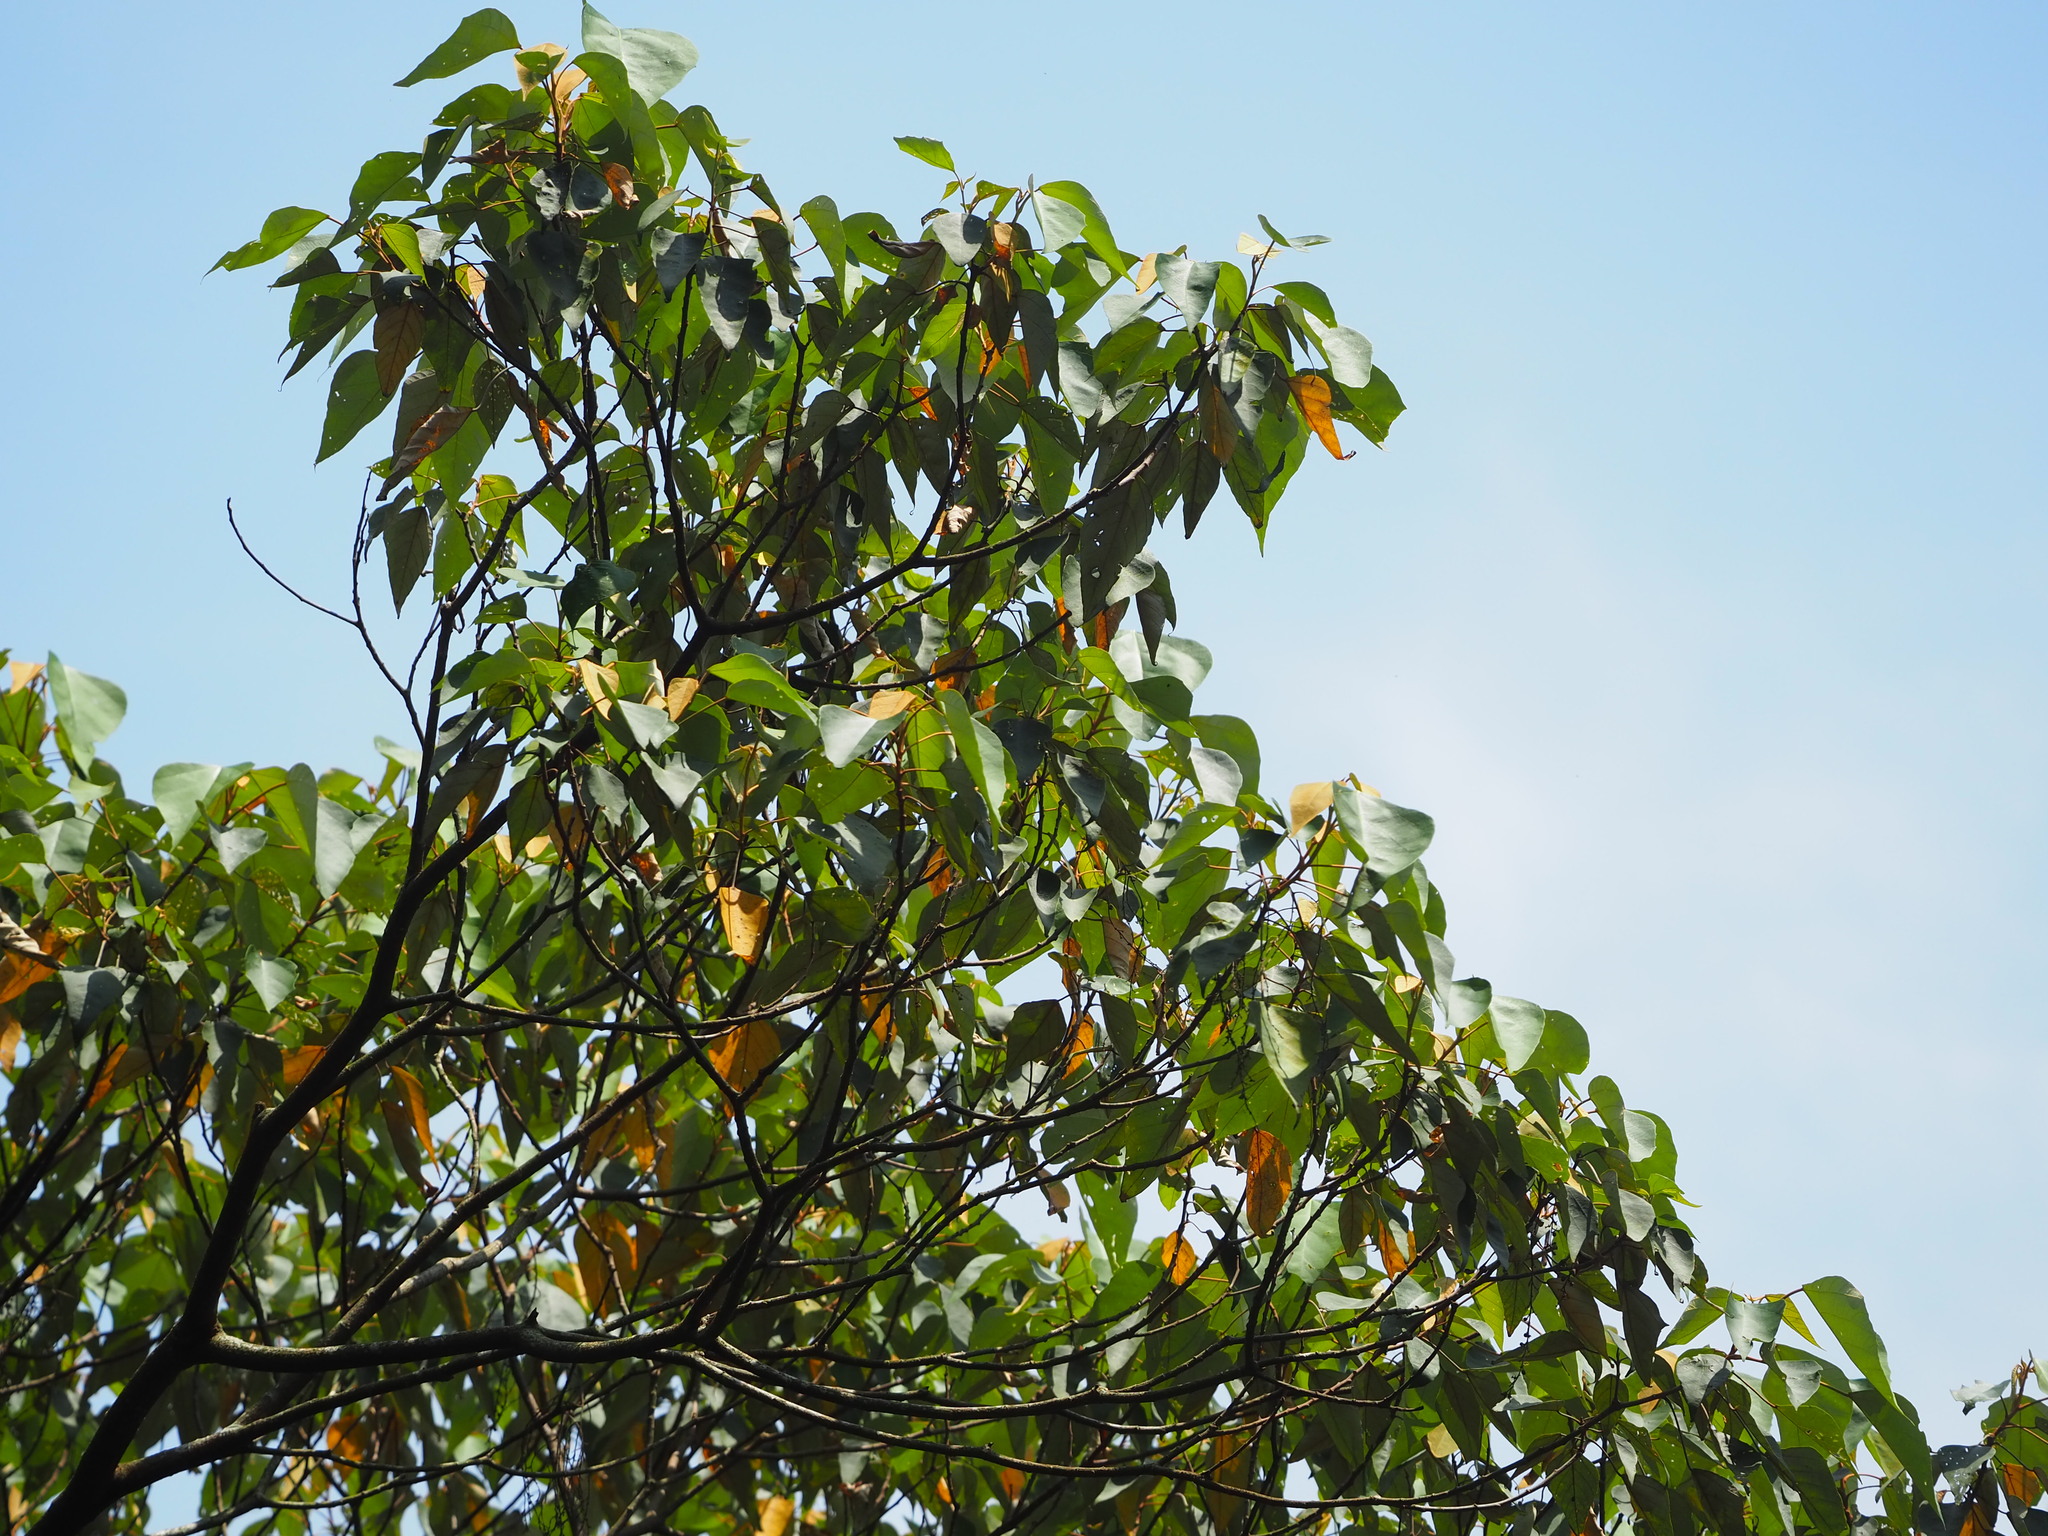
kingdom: Plantae
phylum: Tracheophyta
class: Magnoliopsida
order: Malpighiales
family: Euphorbiaceae
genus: Mallotus
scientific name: Mallotus paniculatus
